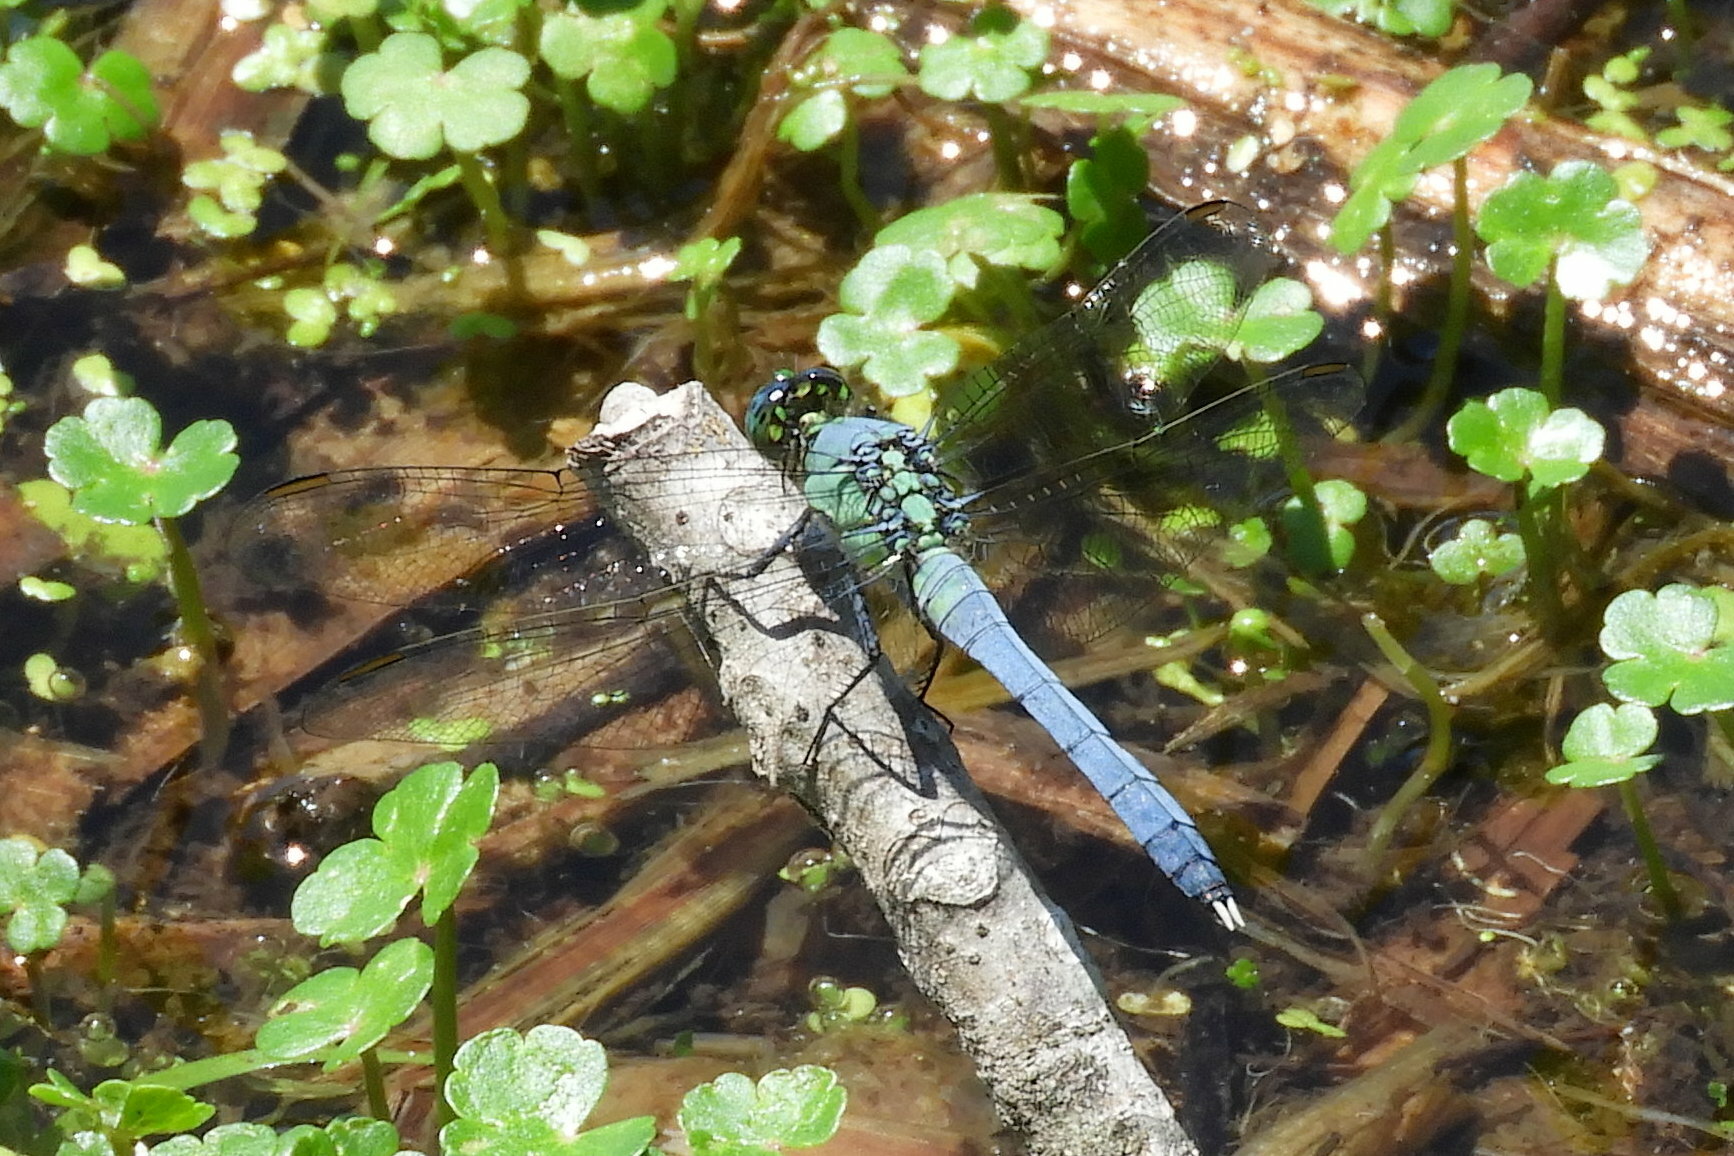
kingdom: Animalia
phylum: Arthropoda
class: Insecta
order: Odonata
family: Libellulidae
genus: Erythemis
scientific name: Erythemis simplicicollis
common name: Eastern pondhawk
